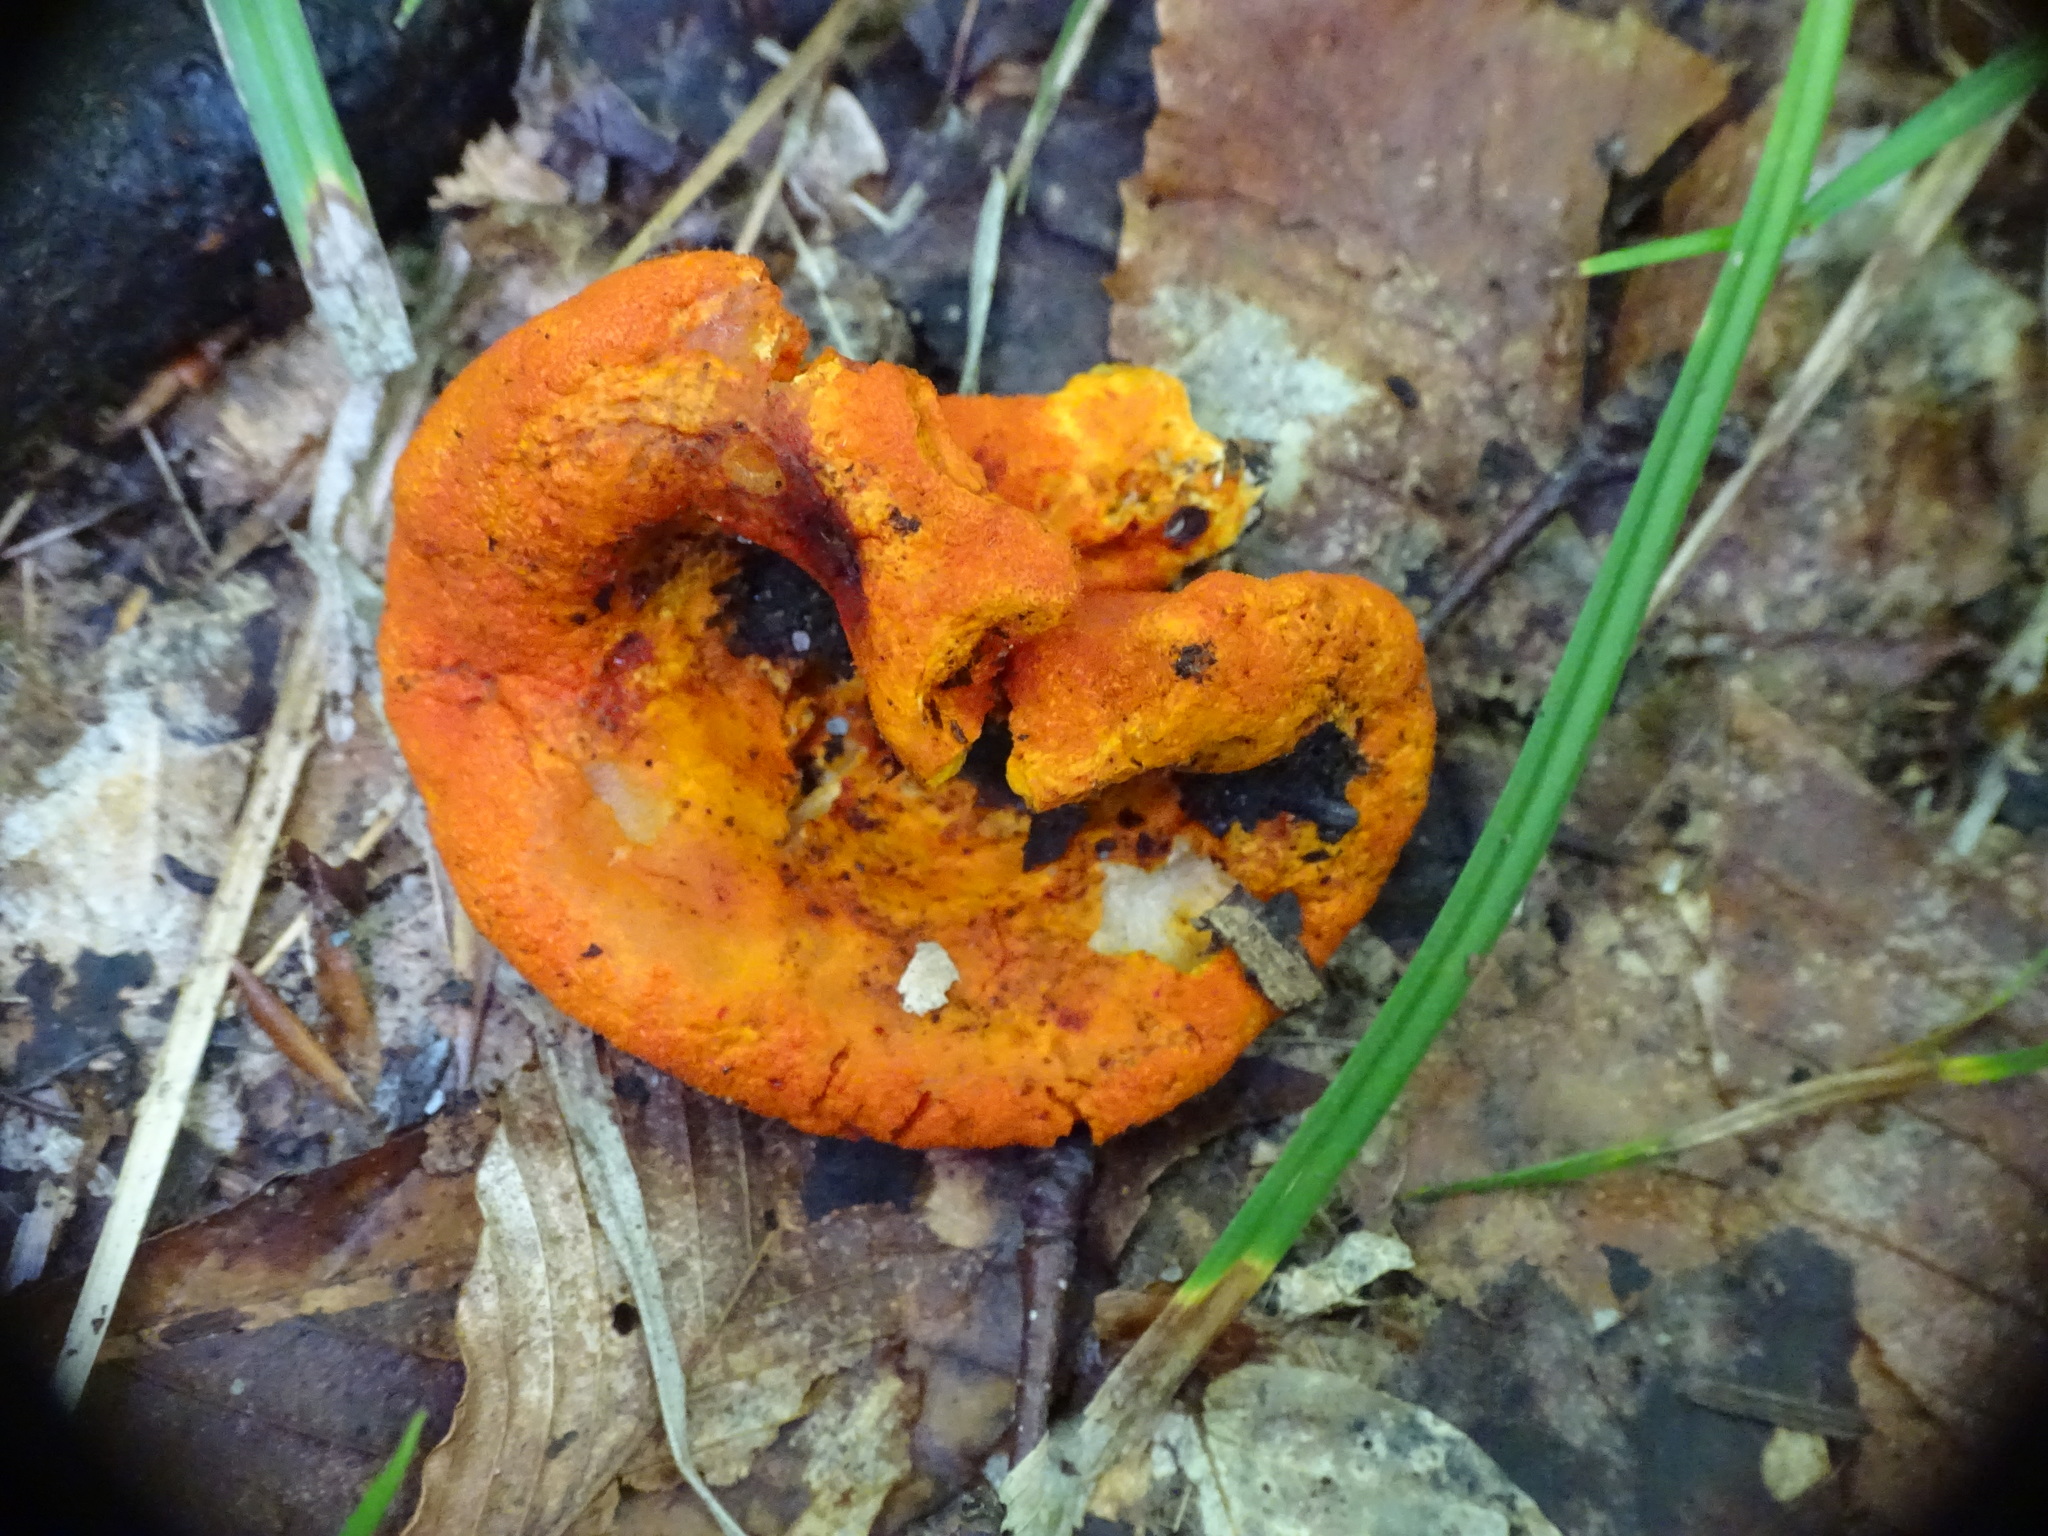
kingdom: Fungi
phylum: Ascomycota
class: Sordariomycetes
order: Hypocreales
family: Hypocreaceae
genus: Hypomyces
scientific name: Hypomyces lactifluorum
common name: Lobster mushroom
